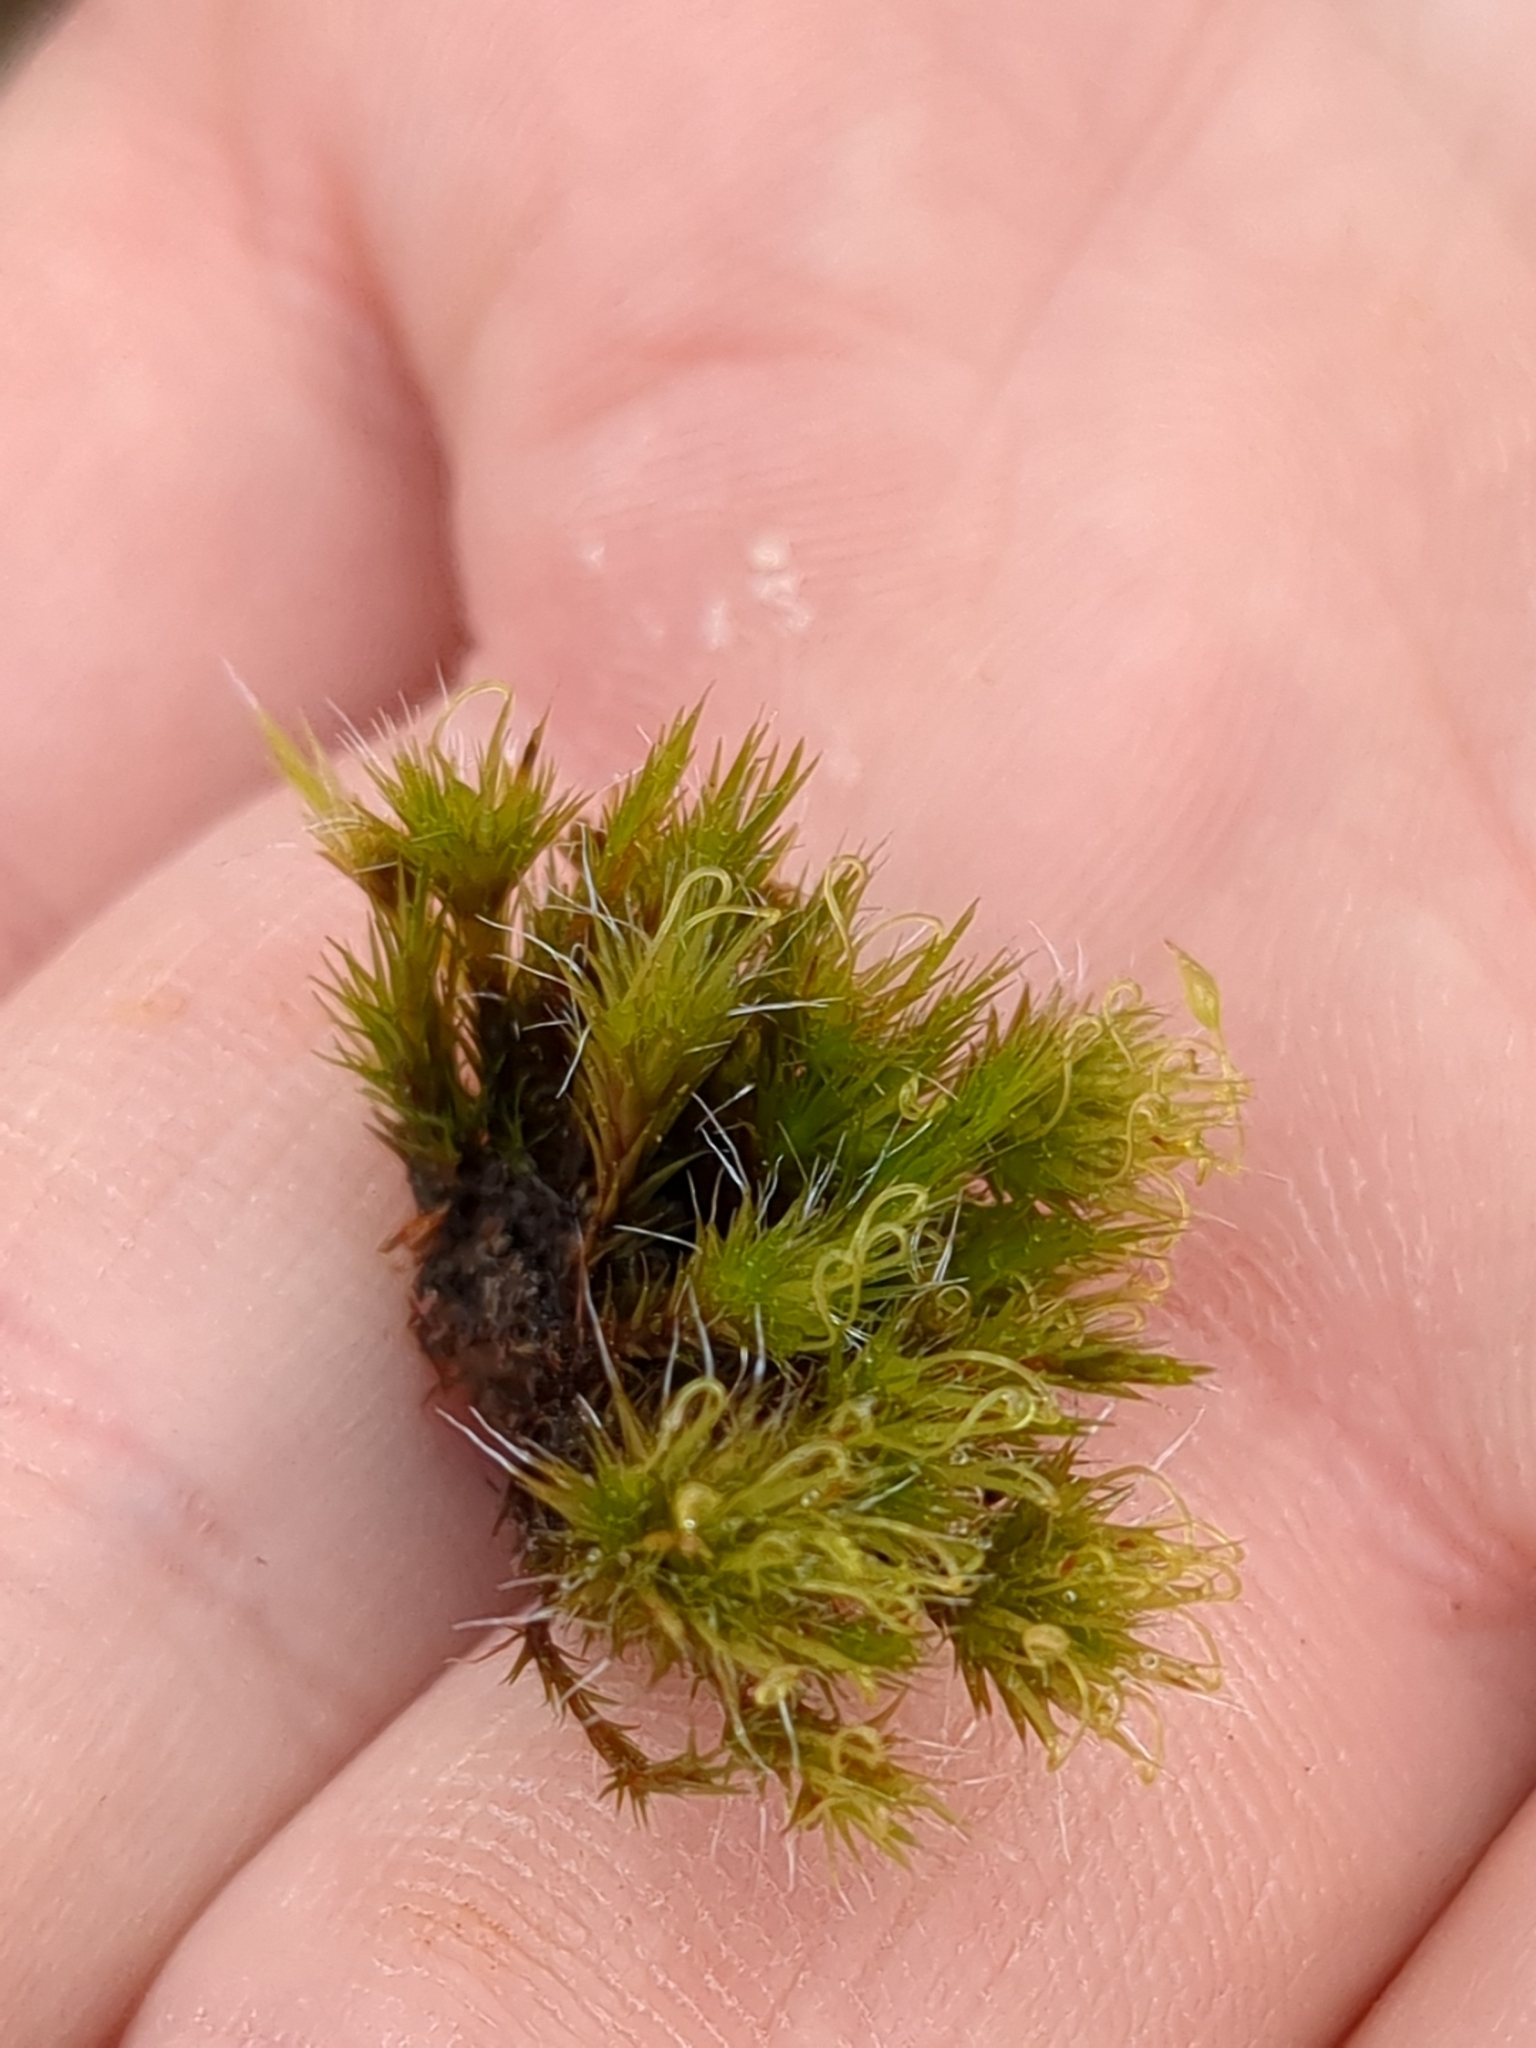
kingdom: Plantae
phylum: Bryophyta
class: Bryopsida
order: Dicranales
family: Leucobryaceae
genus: Campylopus
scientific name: Campylopus introflexus
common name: Heath star moss
